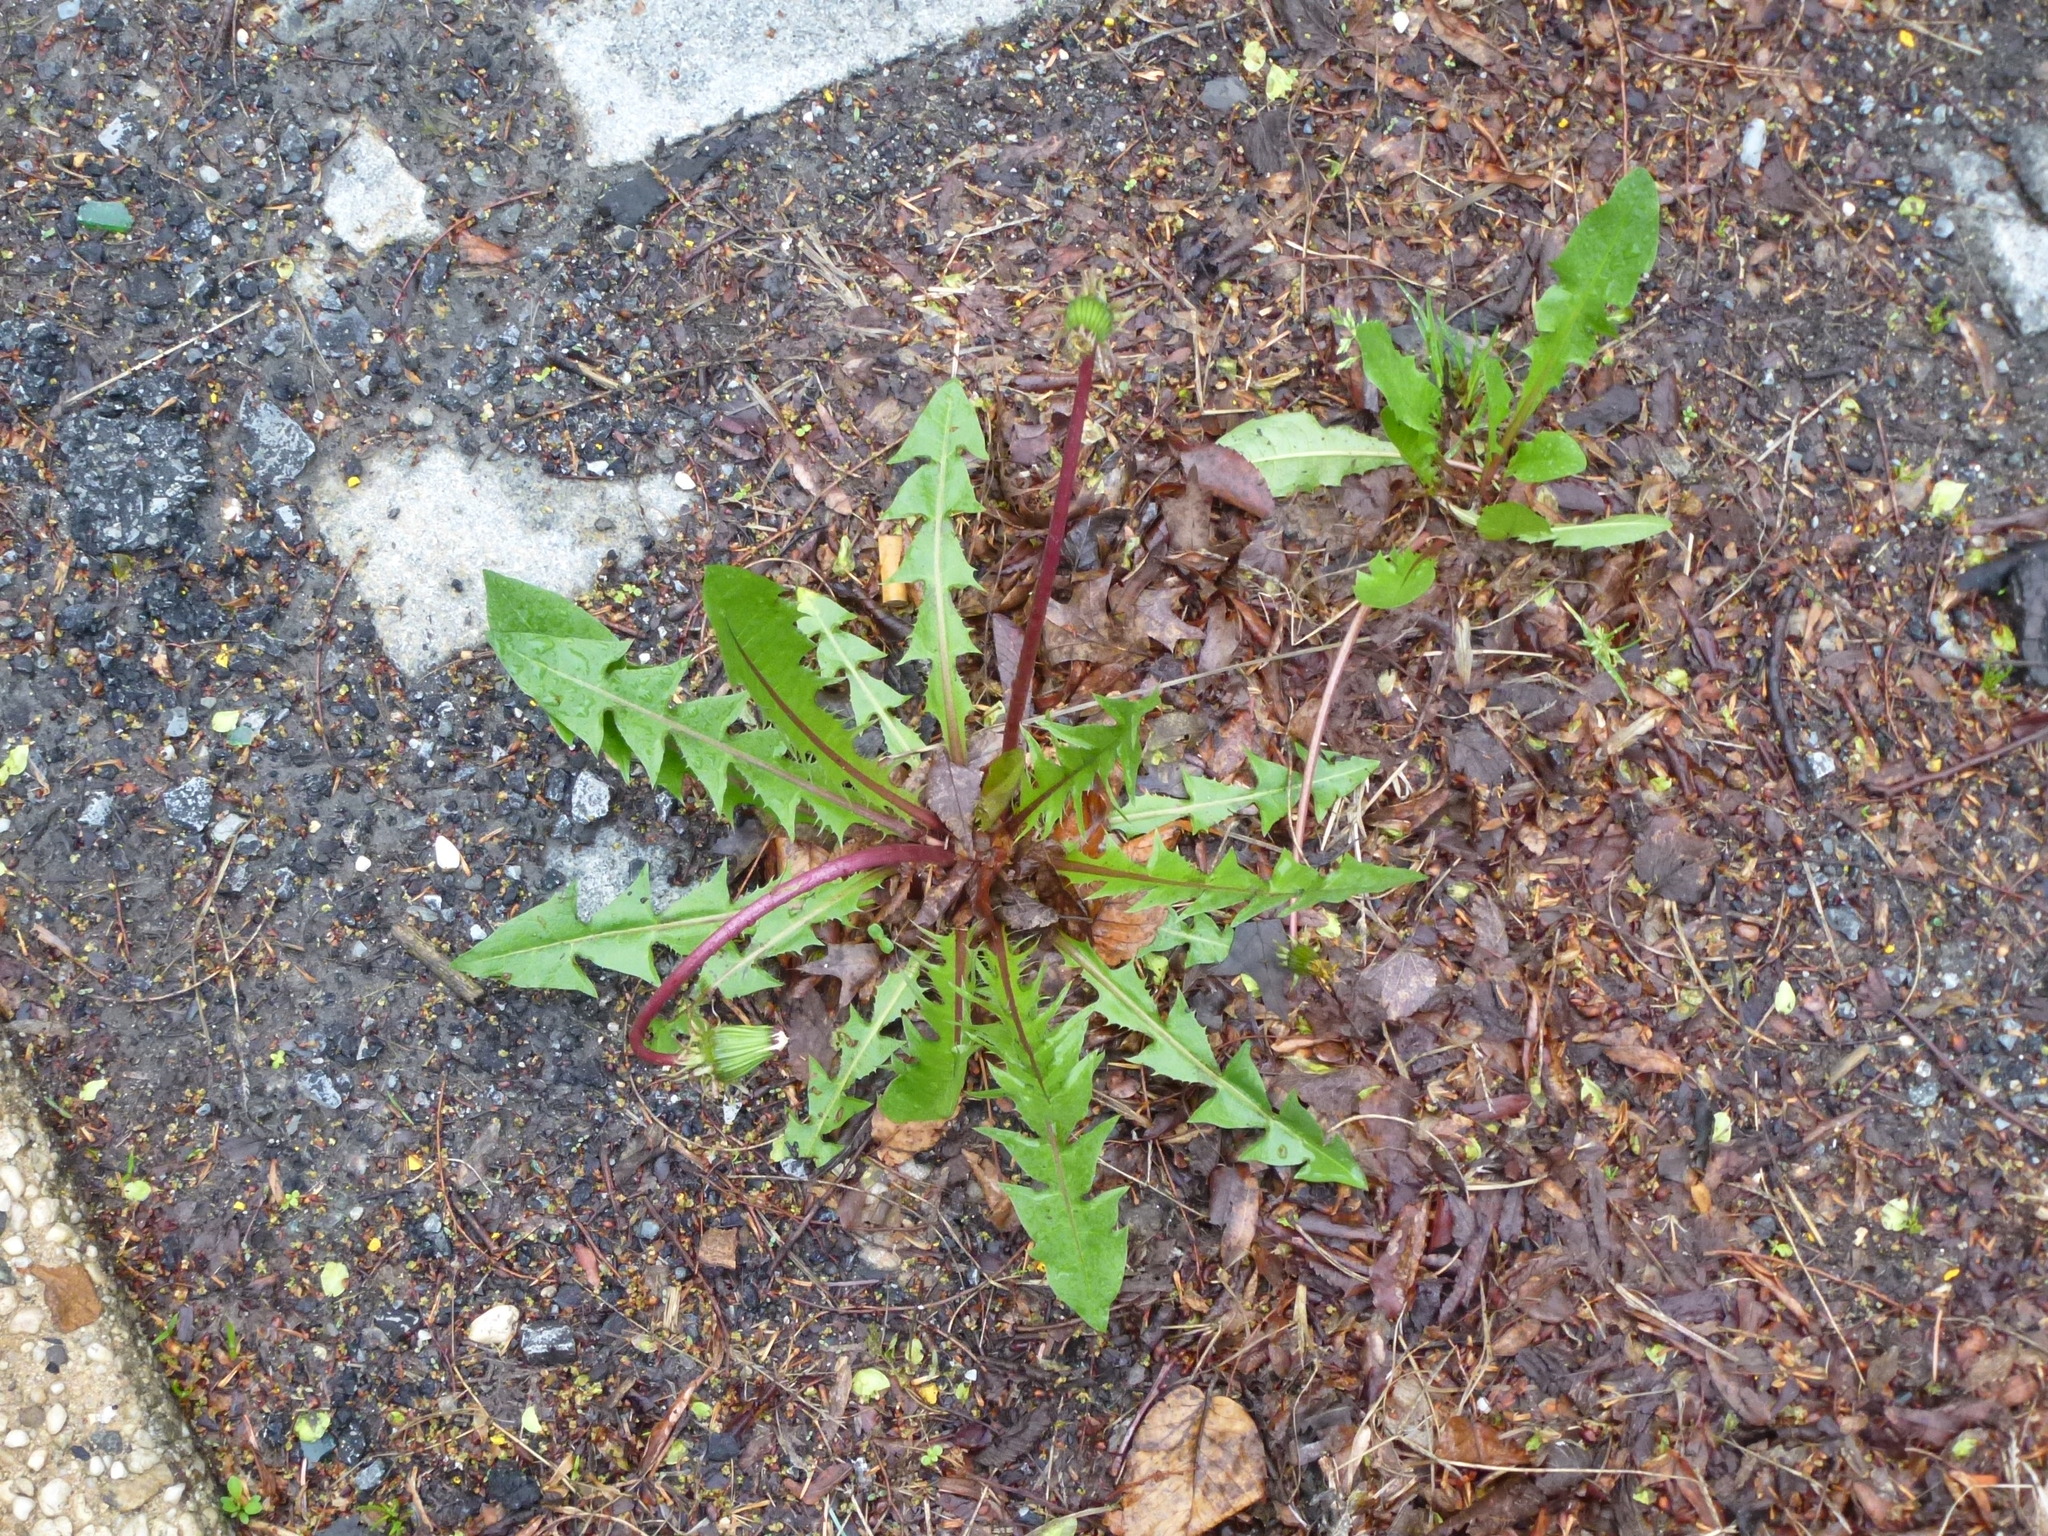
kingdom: Plantae
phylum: Tracheophyta
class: Magnoliopsida
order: Asterales
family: Asteraceae
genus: Taraxacum
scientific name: Taraxacum
